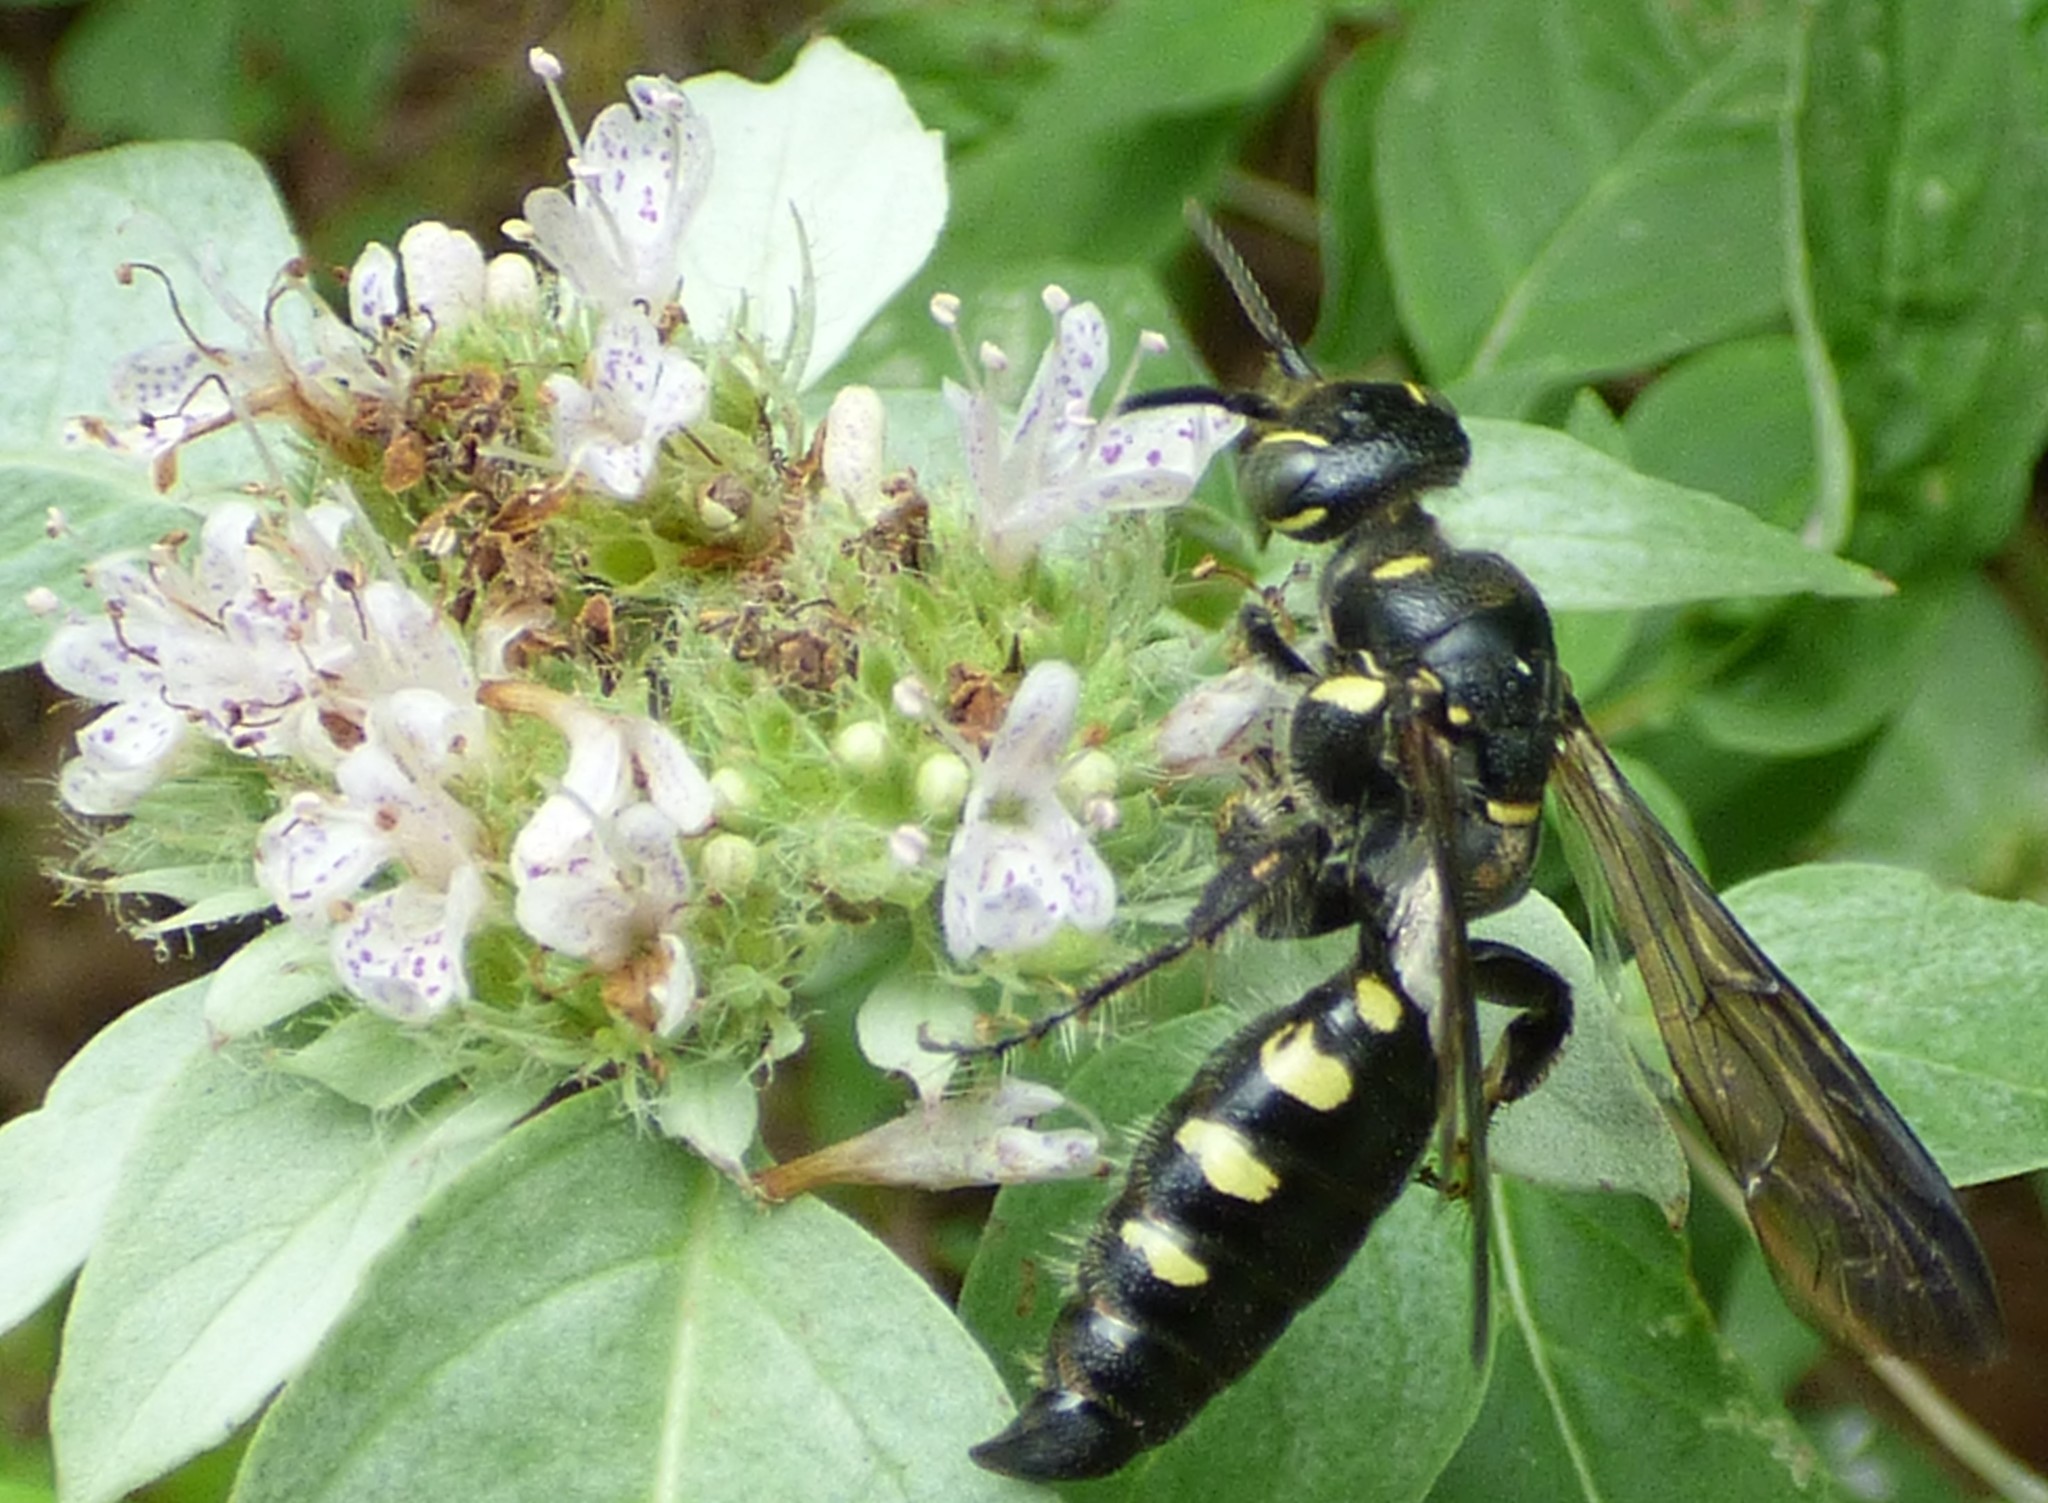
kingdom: Animalia
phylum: Arthropoda
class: Insecta
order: Hymenoptera
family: Tiphiidae
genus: Myzinum
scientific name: Myzinum obscurum
